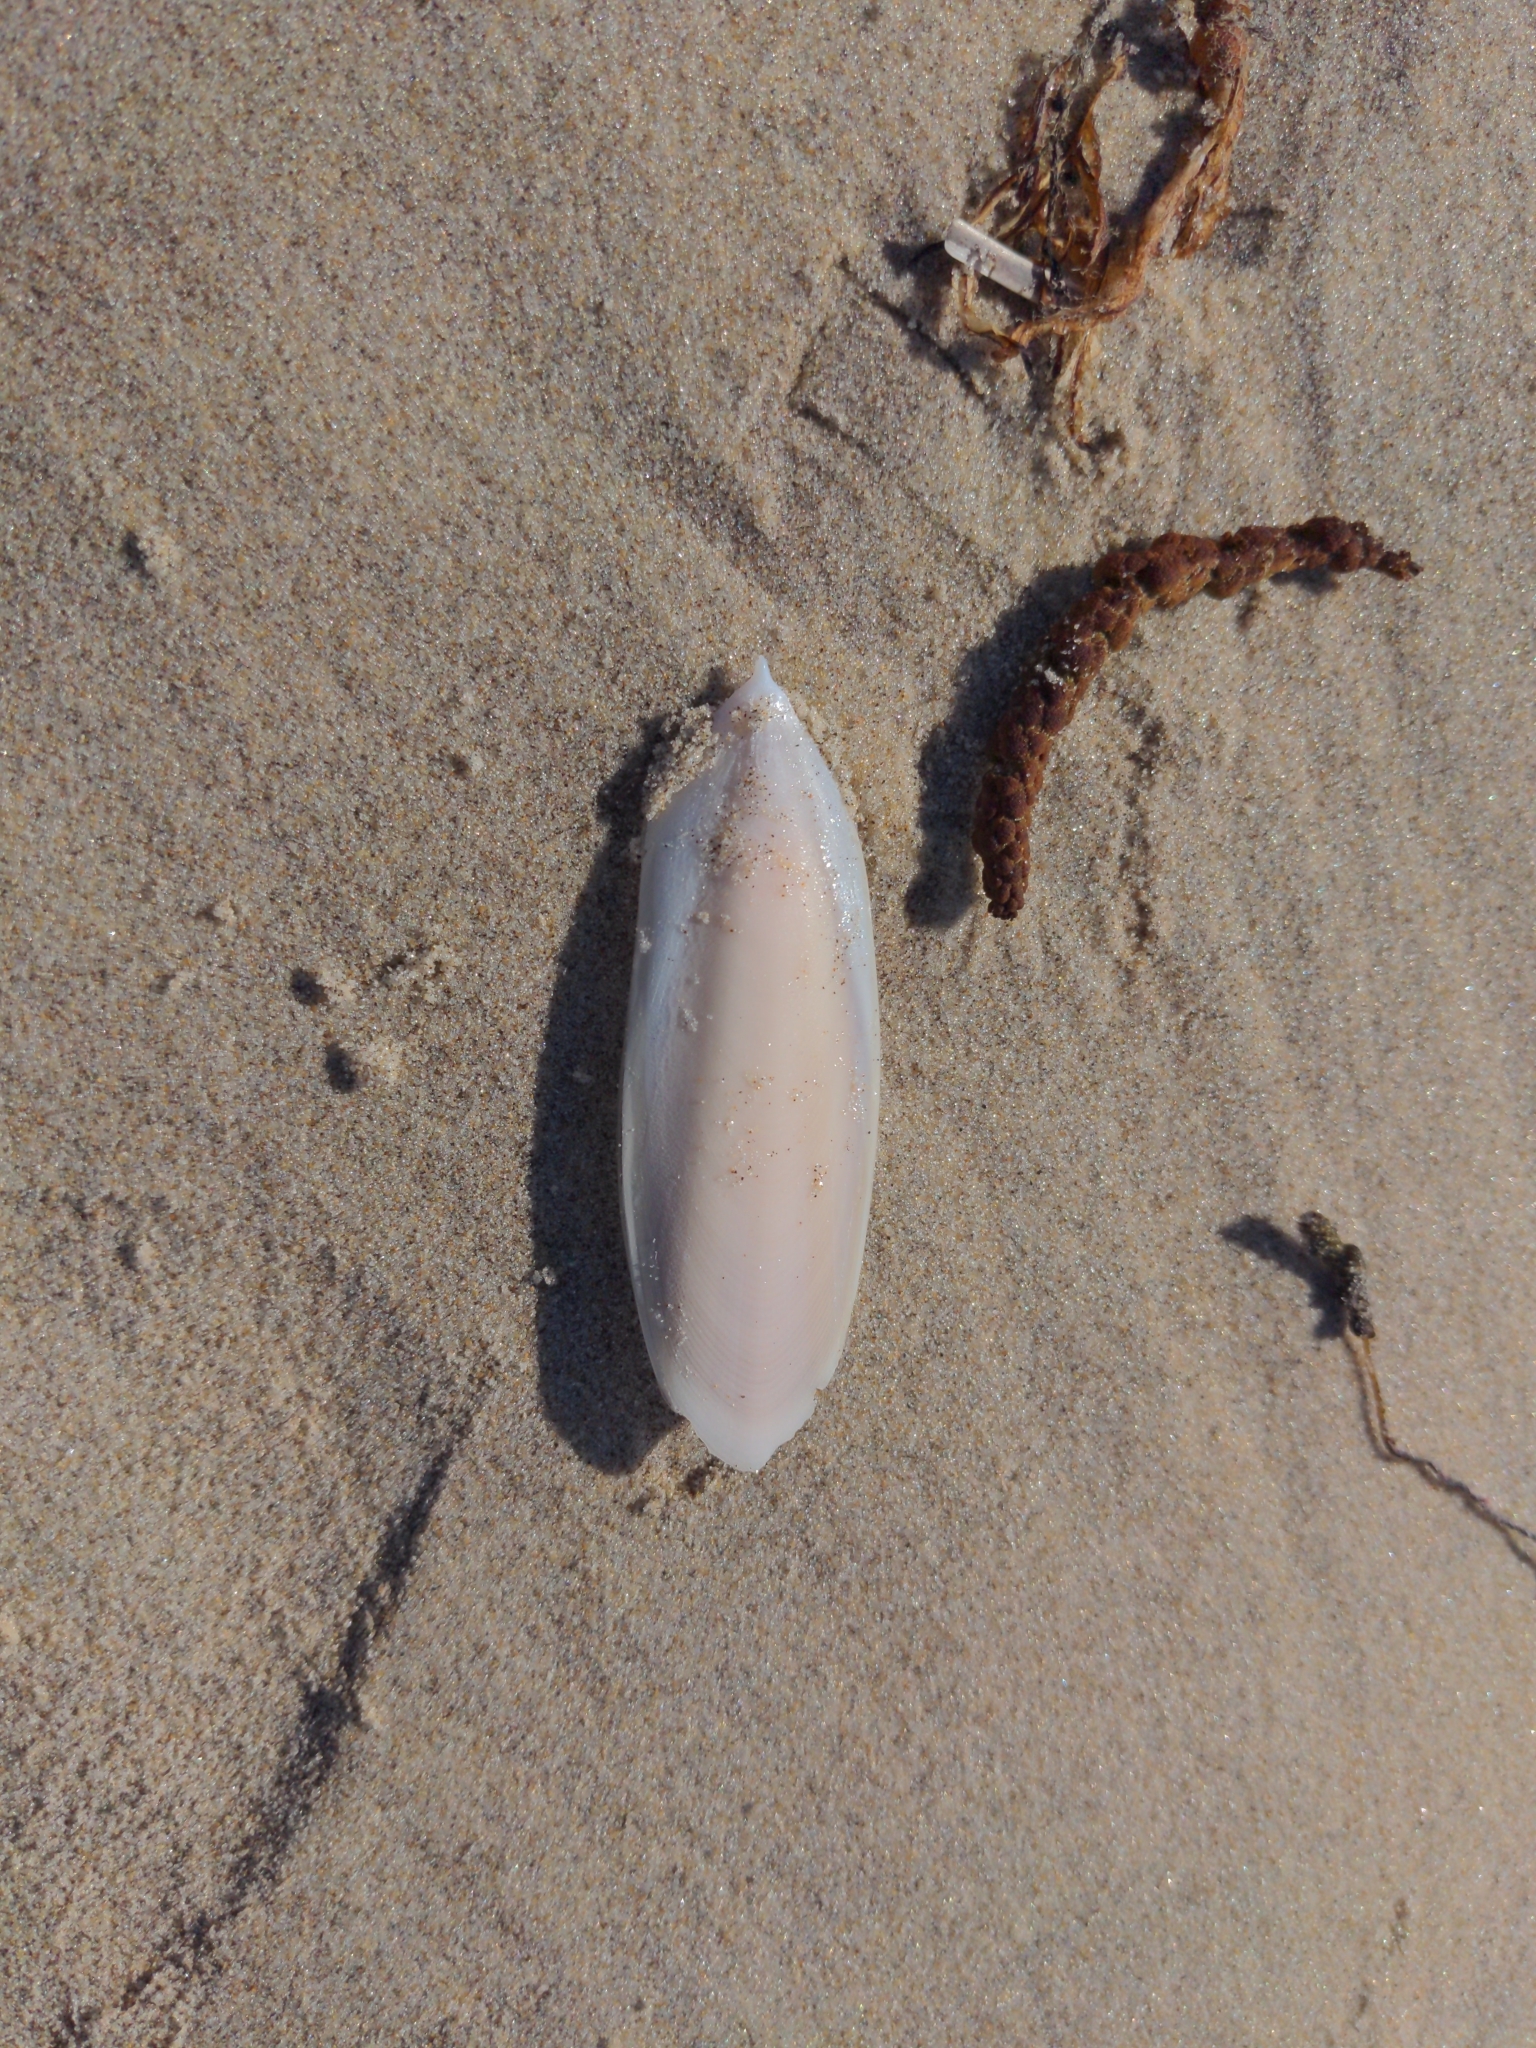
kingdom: Animalia
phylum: Mollusca
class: Cephalopoda
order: Sepiida
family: Sepiidae
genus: Ascarosepion
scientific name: Ascarosepion apama
